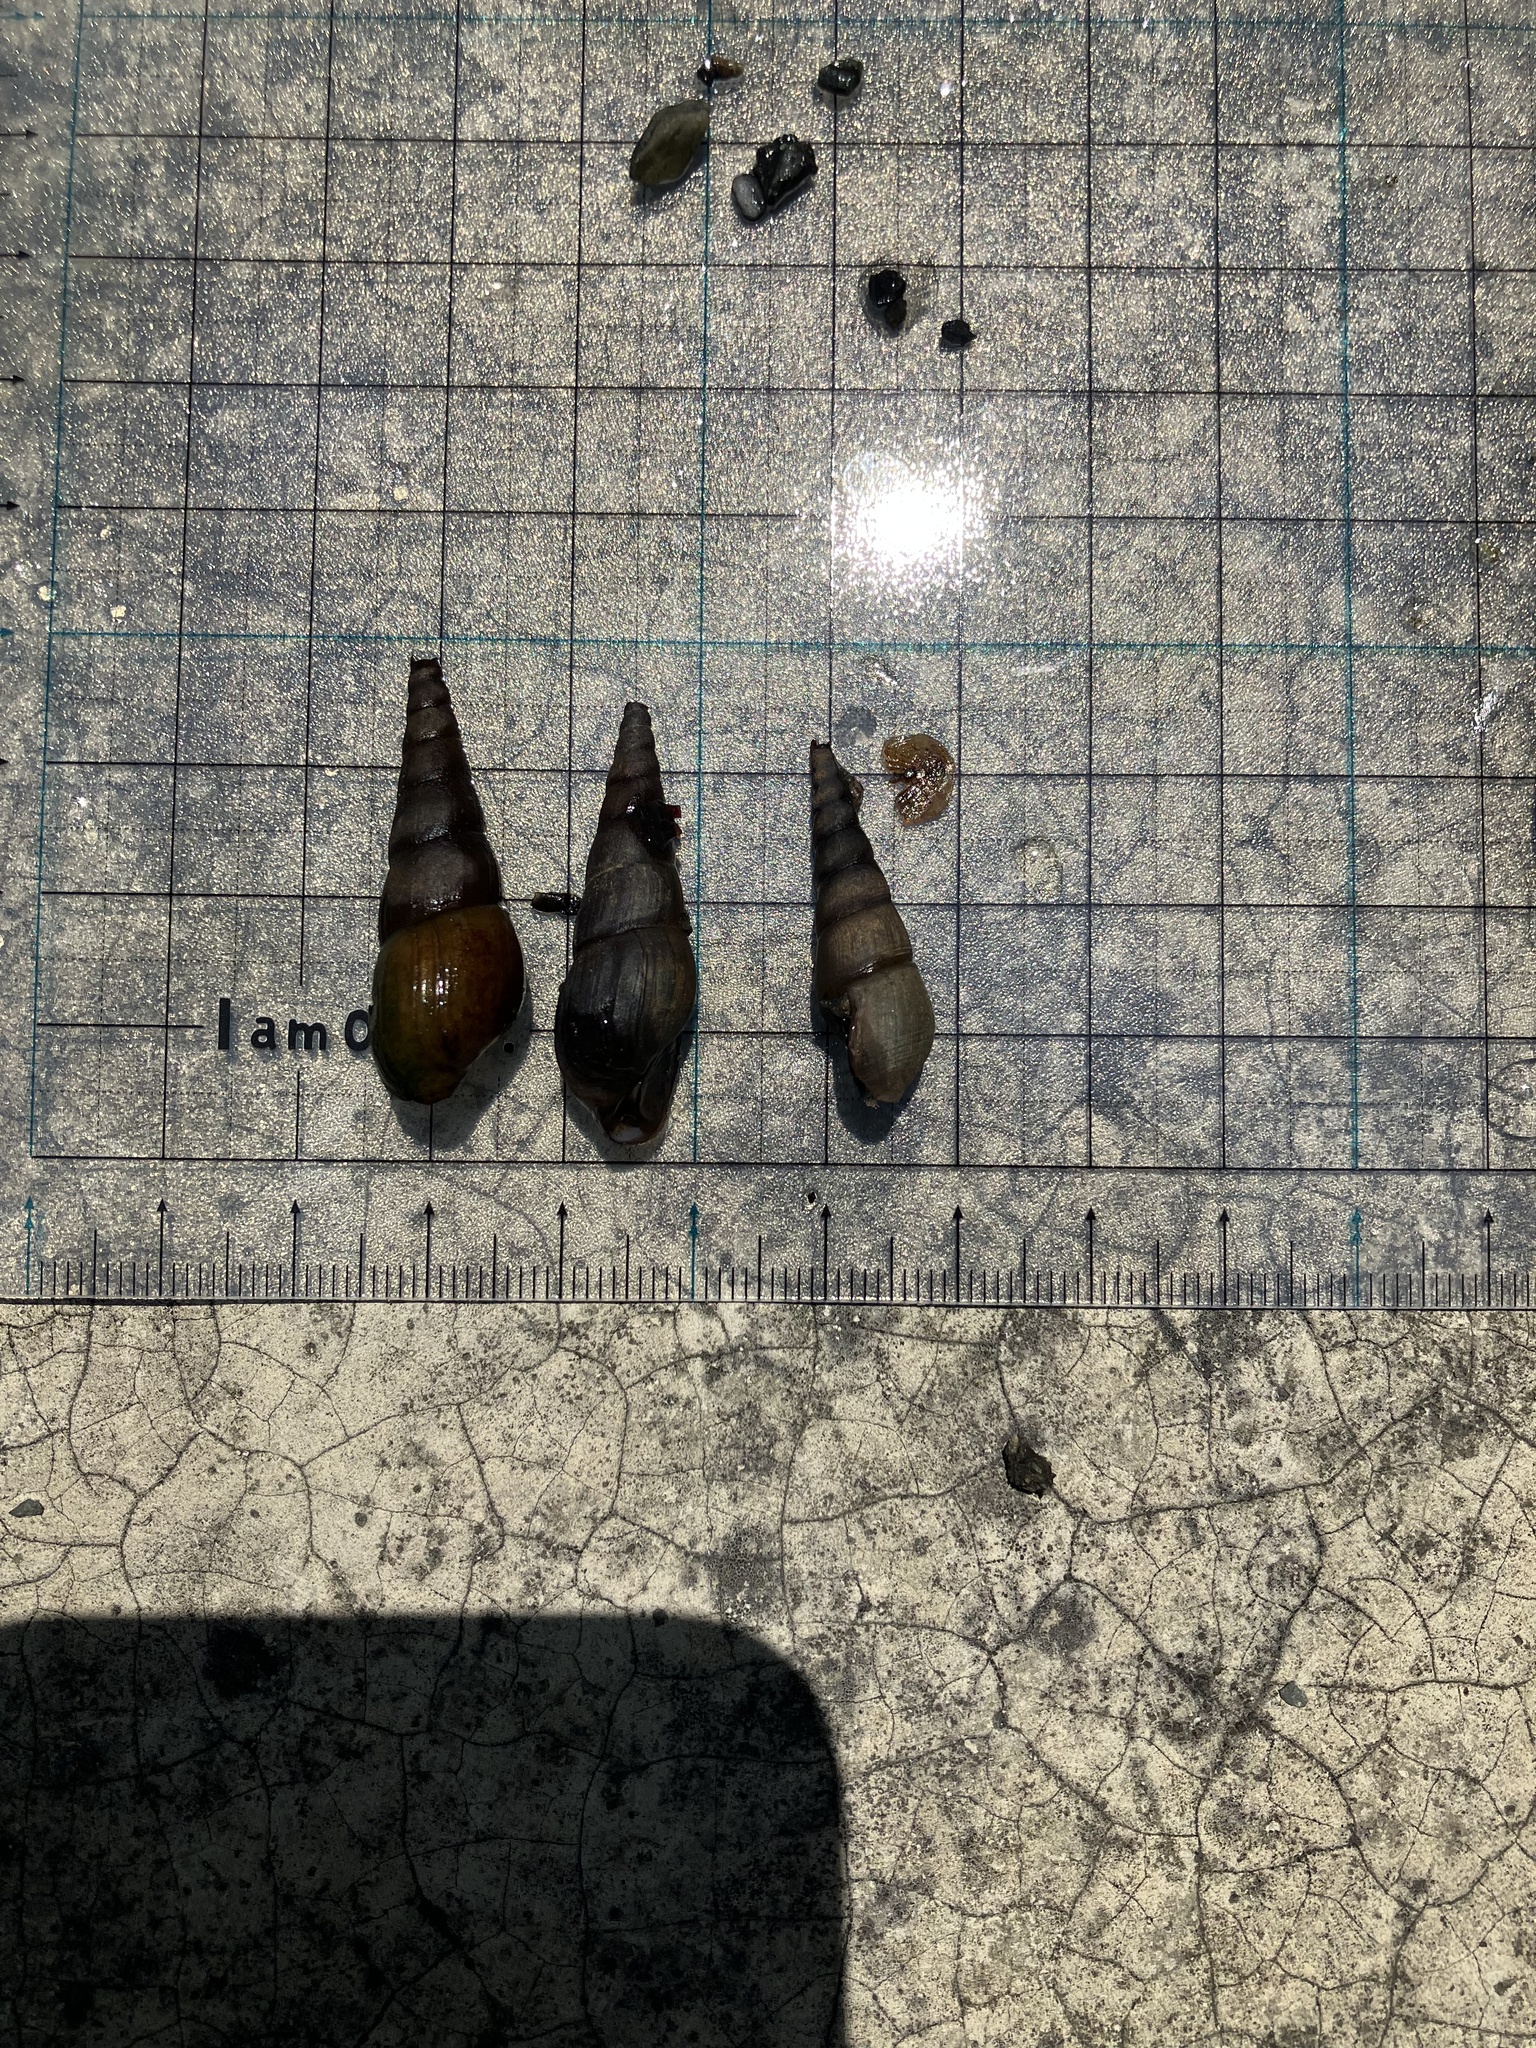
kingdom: Animalia
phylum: Mollusca
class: Gastropoda
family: Thiaridae
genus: Stenomelania
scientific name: Stenomelania plicaria
